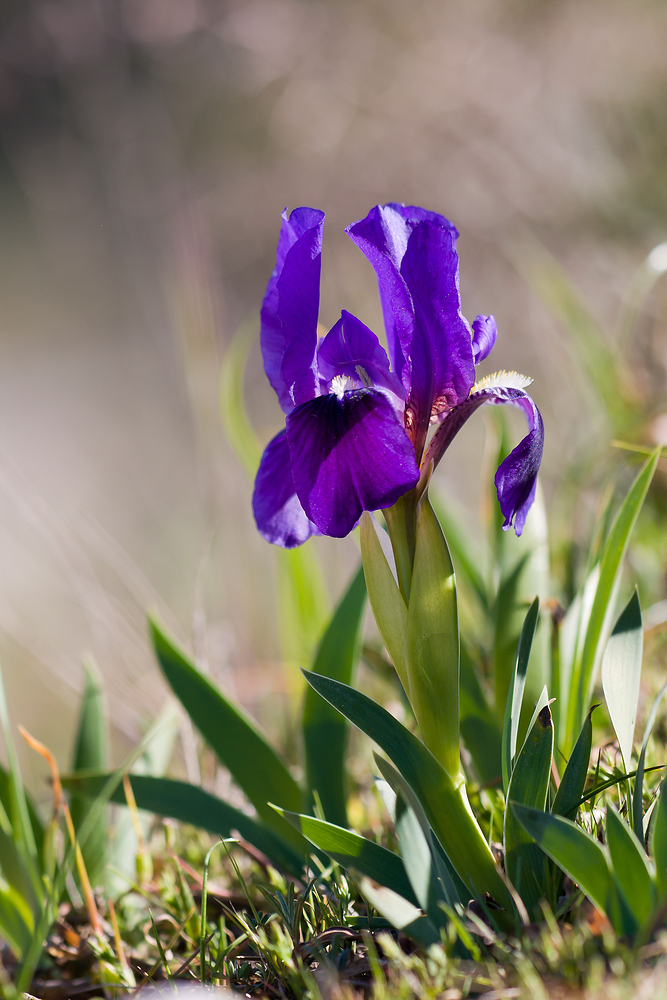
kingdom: Plantae
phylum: Tracheophyta
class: Liliopsida
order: Asparagales
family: Iridaceae
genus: Iris
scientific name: Iris lutescens
